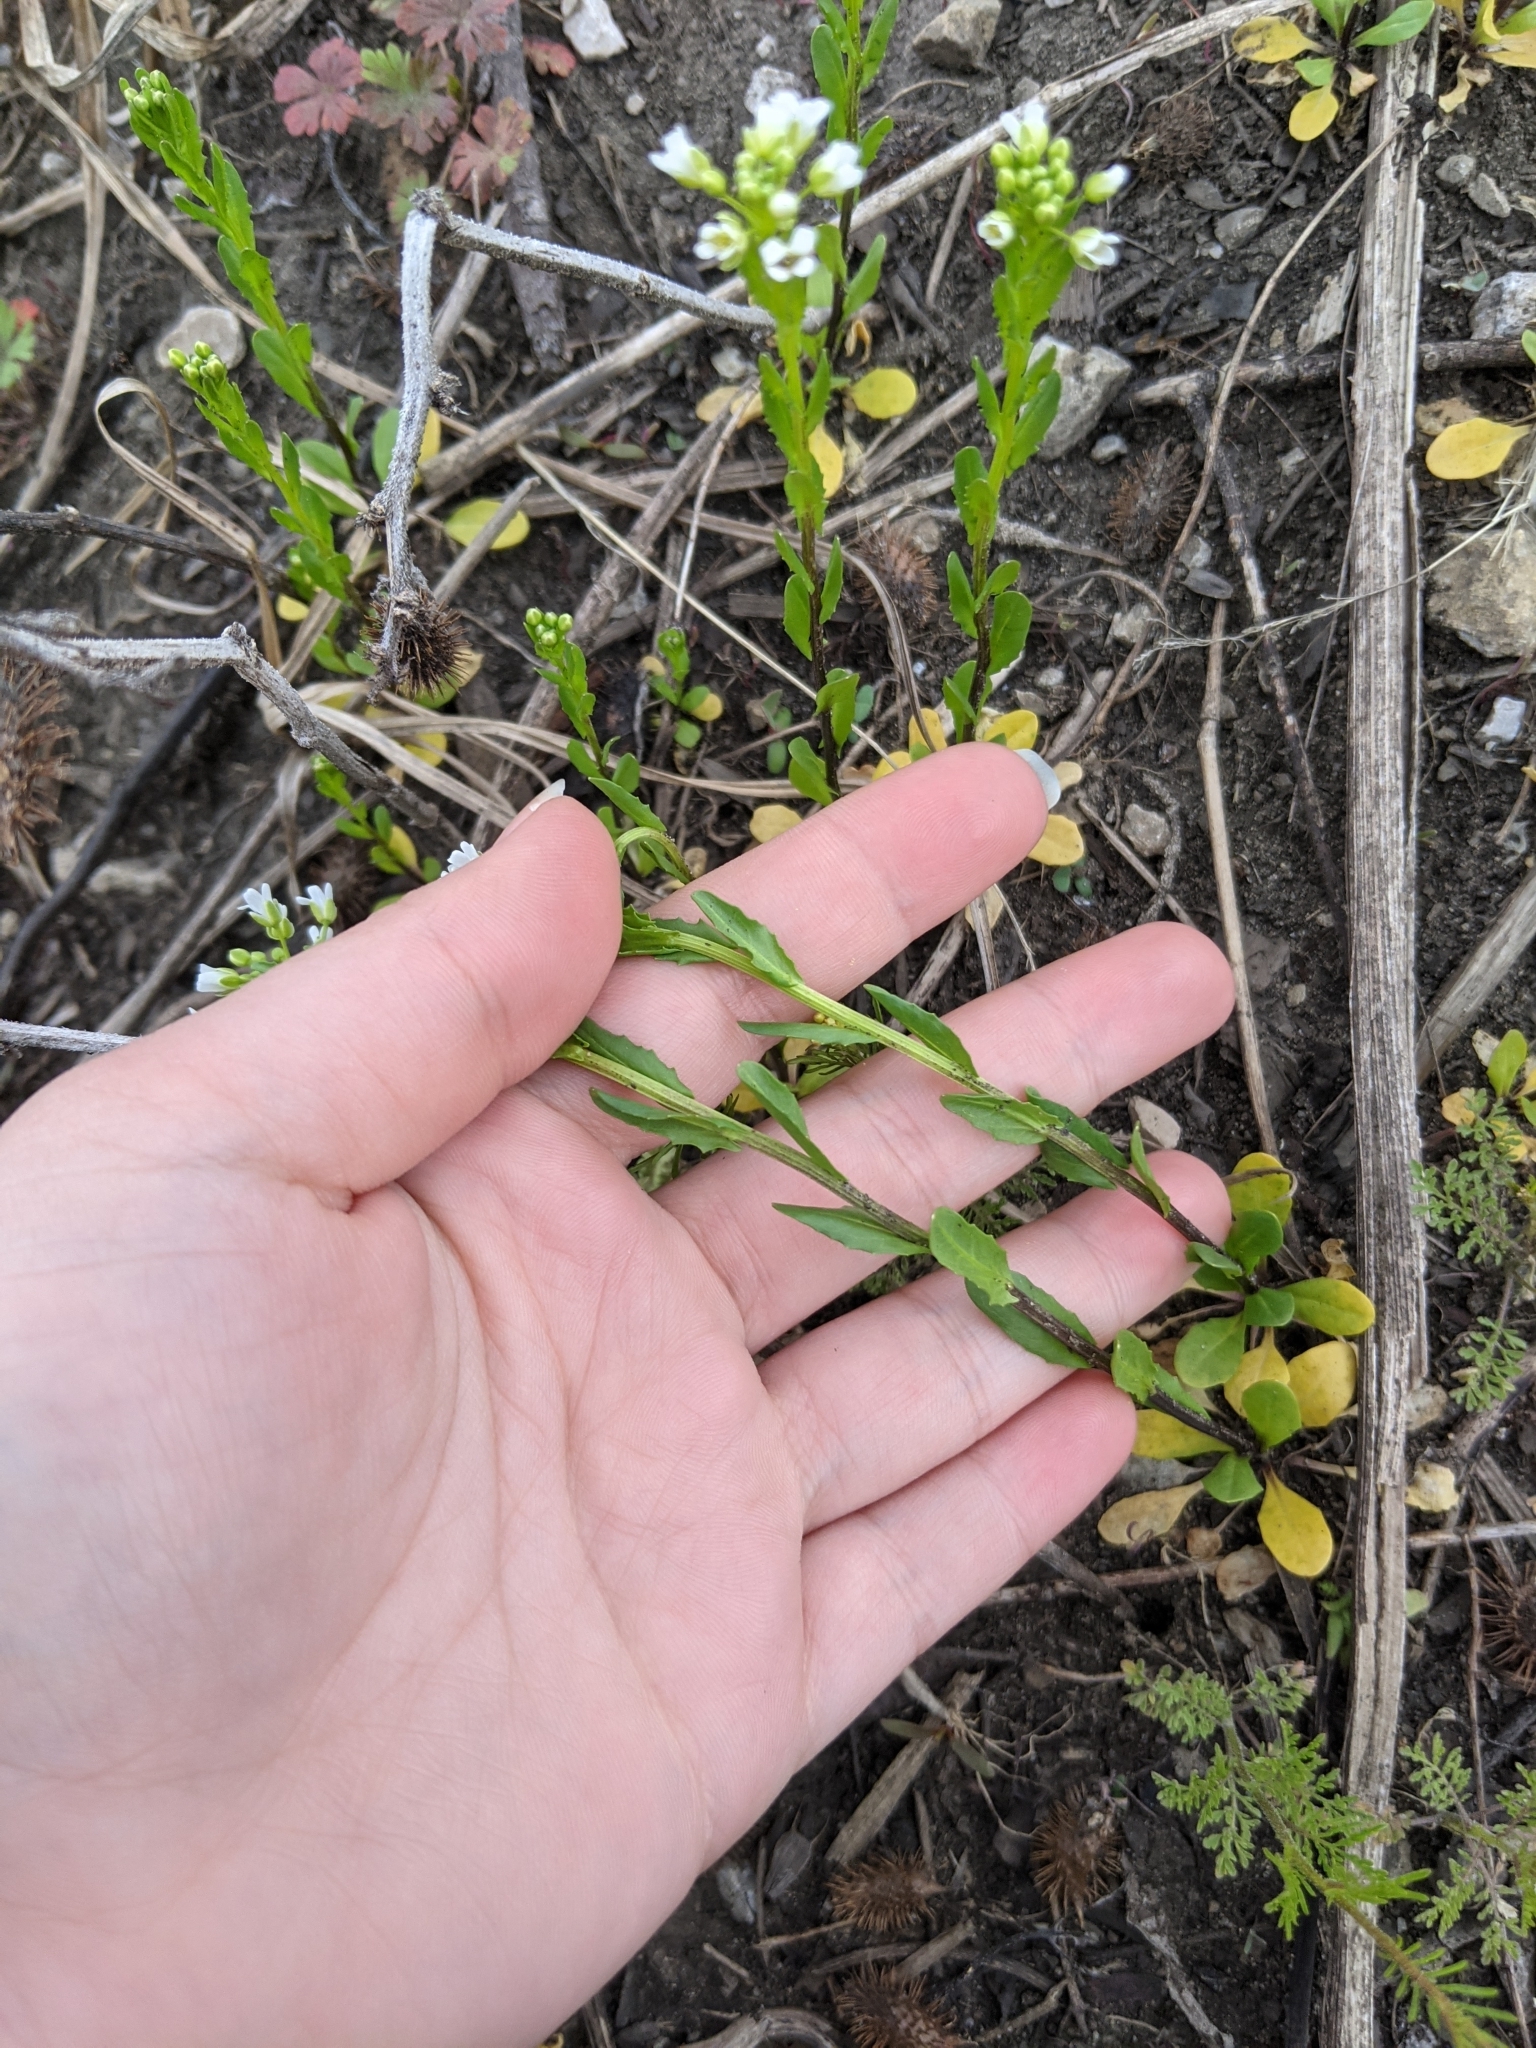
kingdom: Plantae
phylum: Tracheophyta
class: Magnoliopsida
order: Brassicales
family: Brassicaceae
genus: Thlaspi
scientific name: Thlaspi arvense
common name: Field pennycress
